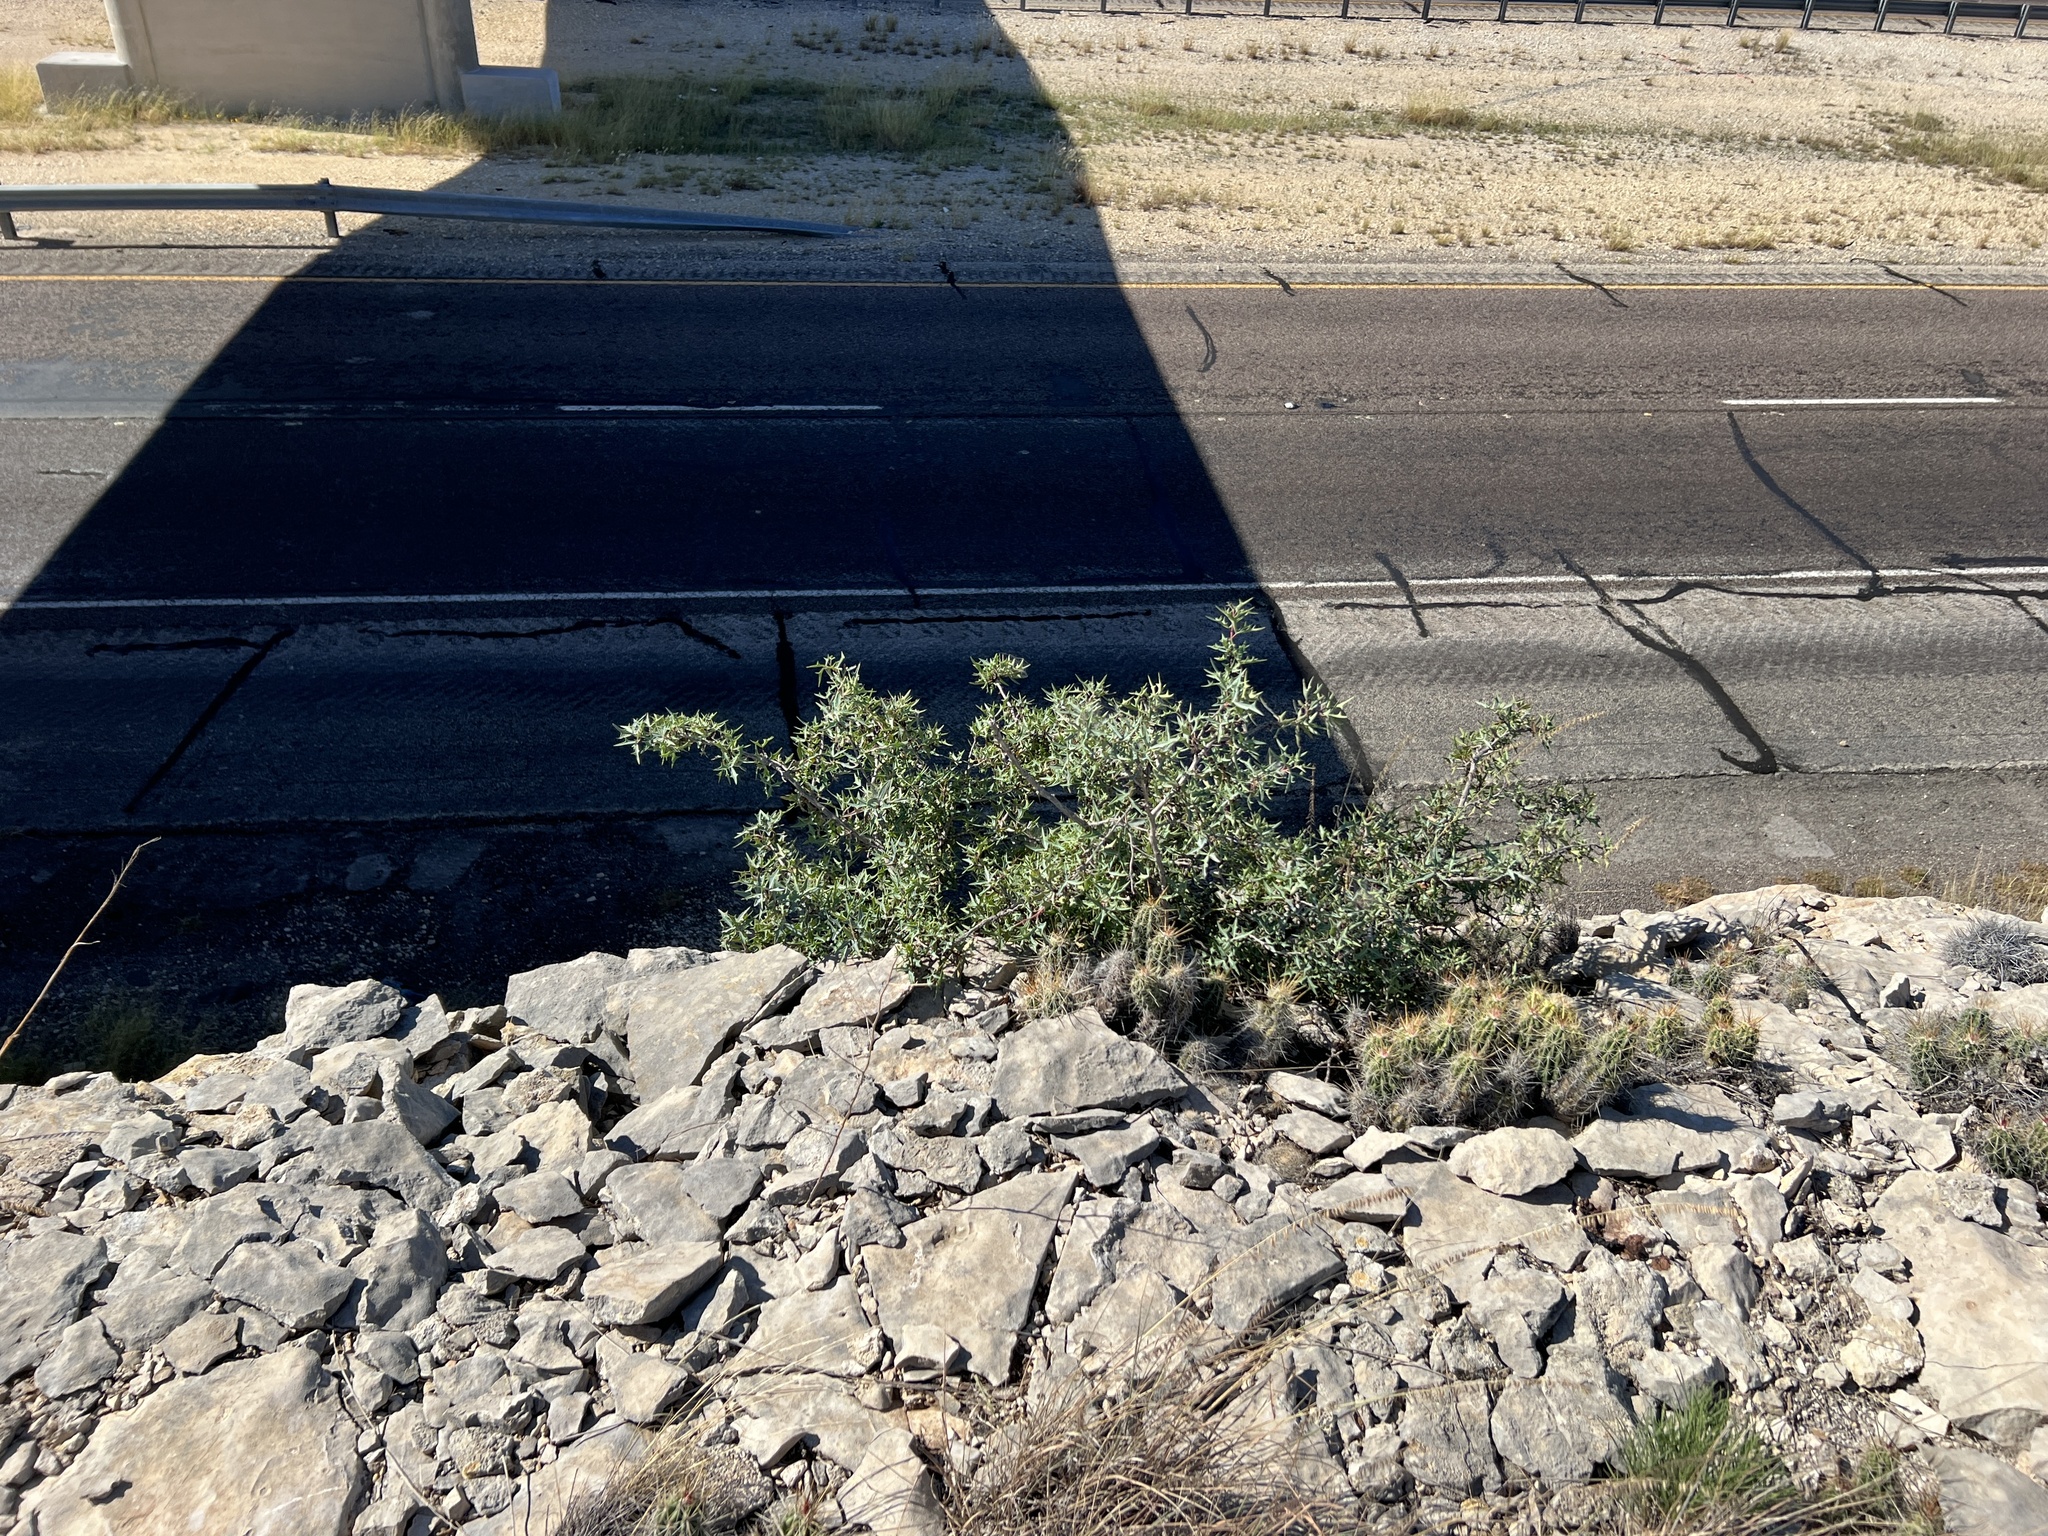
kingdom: Plantae
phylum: Tracheophyta
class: Magnoliopsida
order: Ranunculales
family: Berberidaceae
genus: Alloberberis
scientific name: Alloberberis trifoliolata
